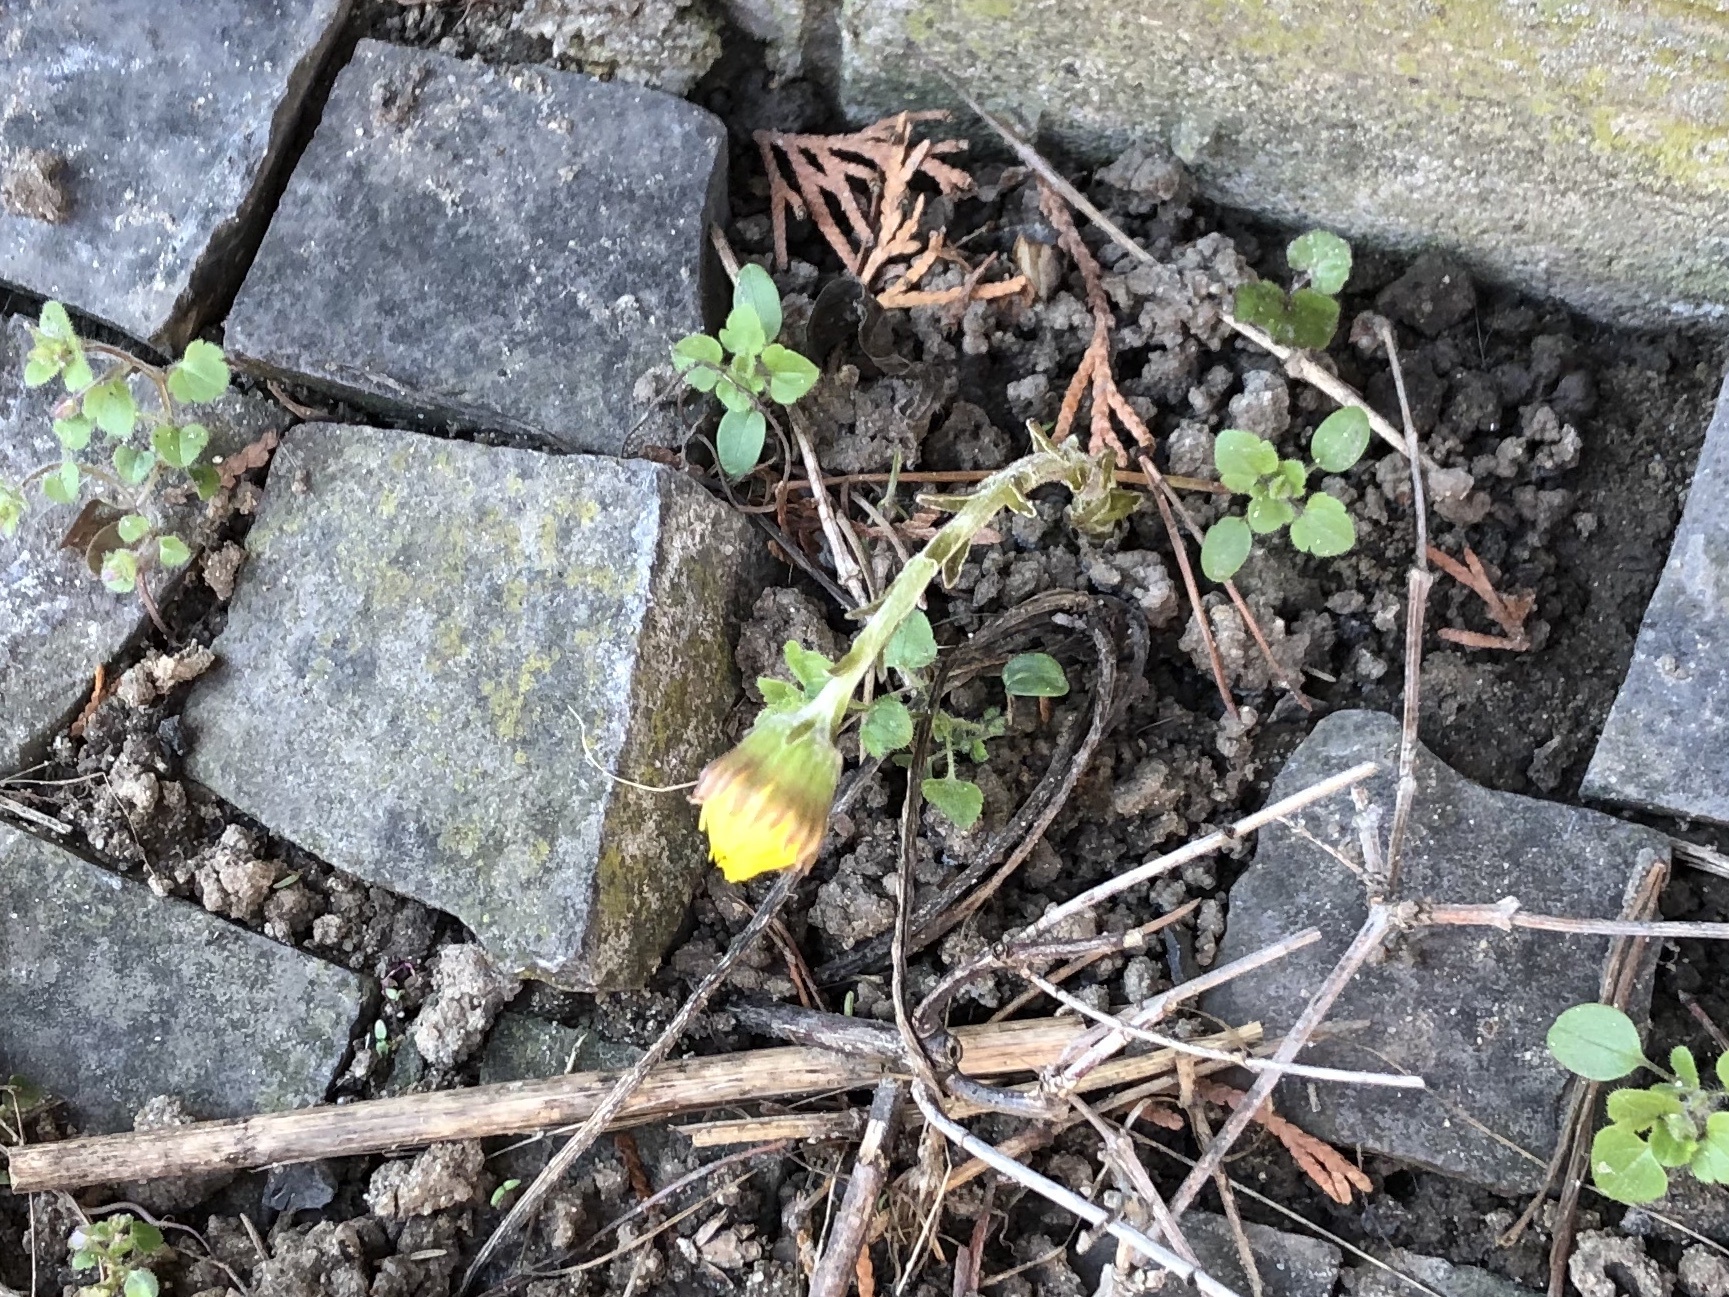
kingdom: Plantae
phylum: Tracheophyta
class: Magnoliopsida
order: Asterales
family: Asteraceae
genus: Tussilago
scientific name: Tussilago farfara
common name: Coltsfoot
